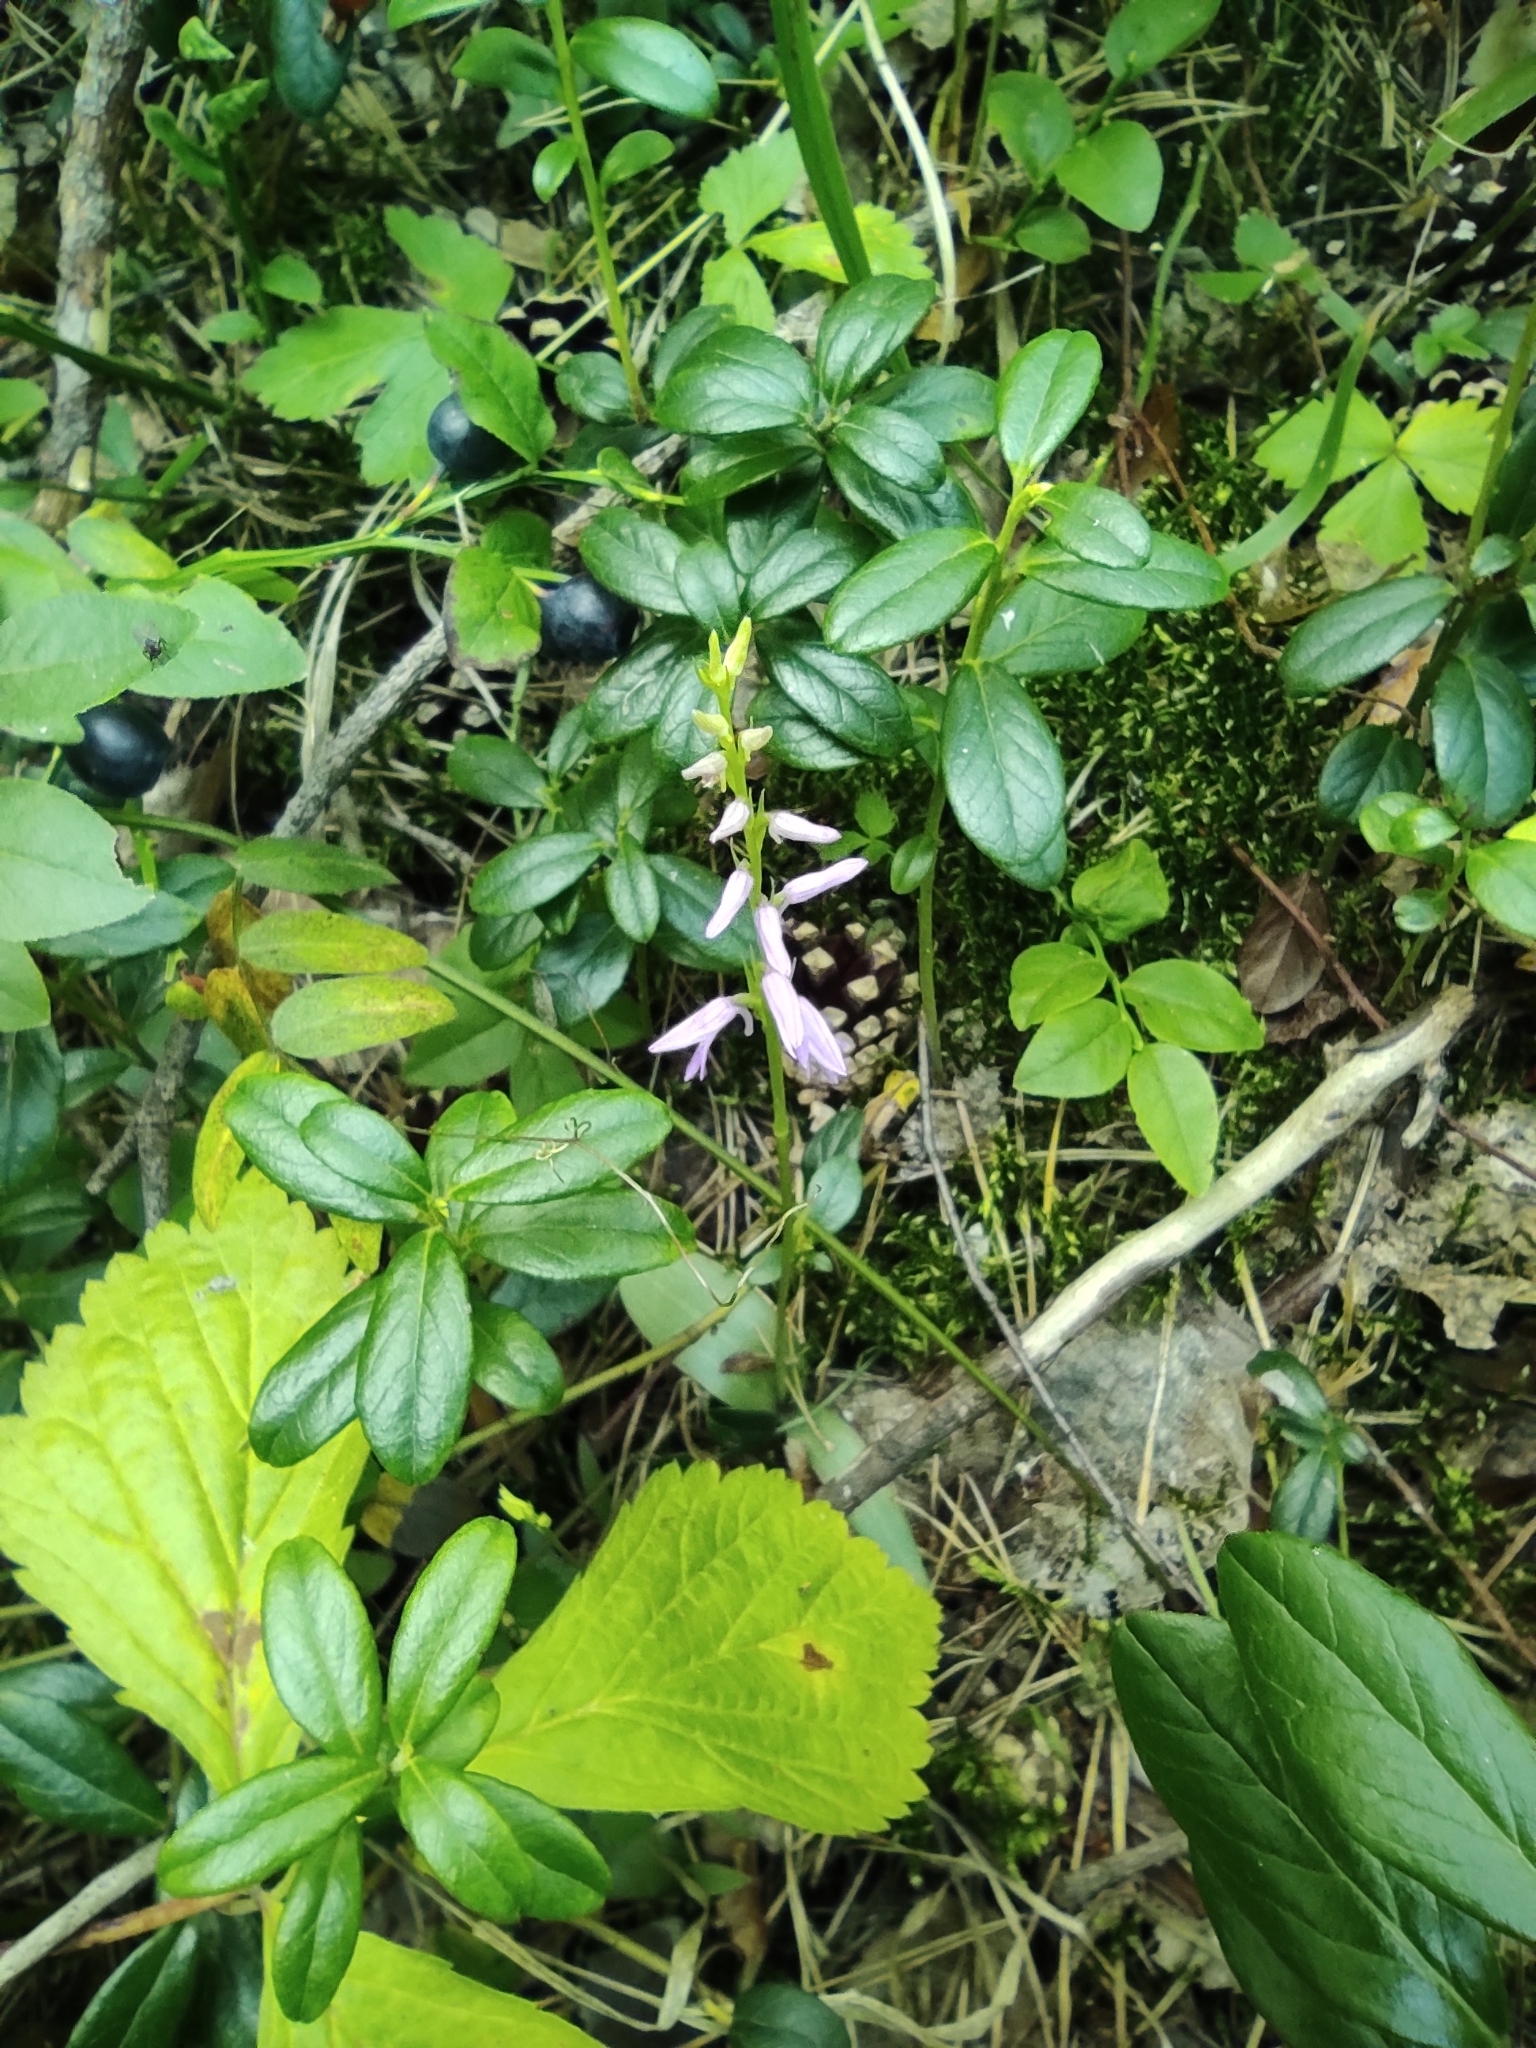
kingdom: Plantae
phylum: Tracheophyta
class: Liliopsida
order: Asparagales
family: Orchidaceae
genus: Hemipilia
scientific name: Hemipilia cucullata
